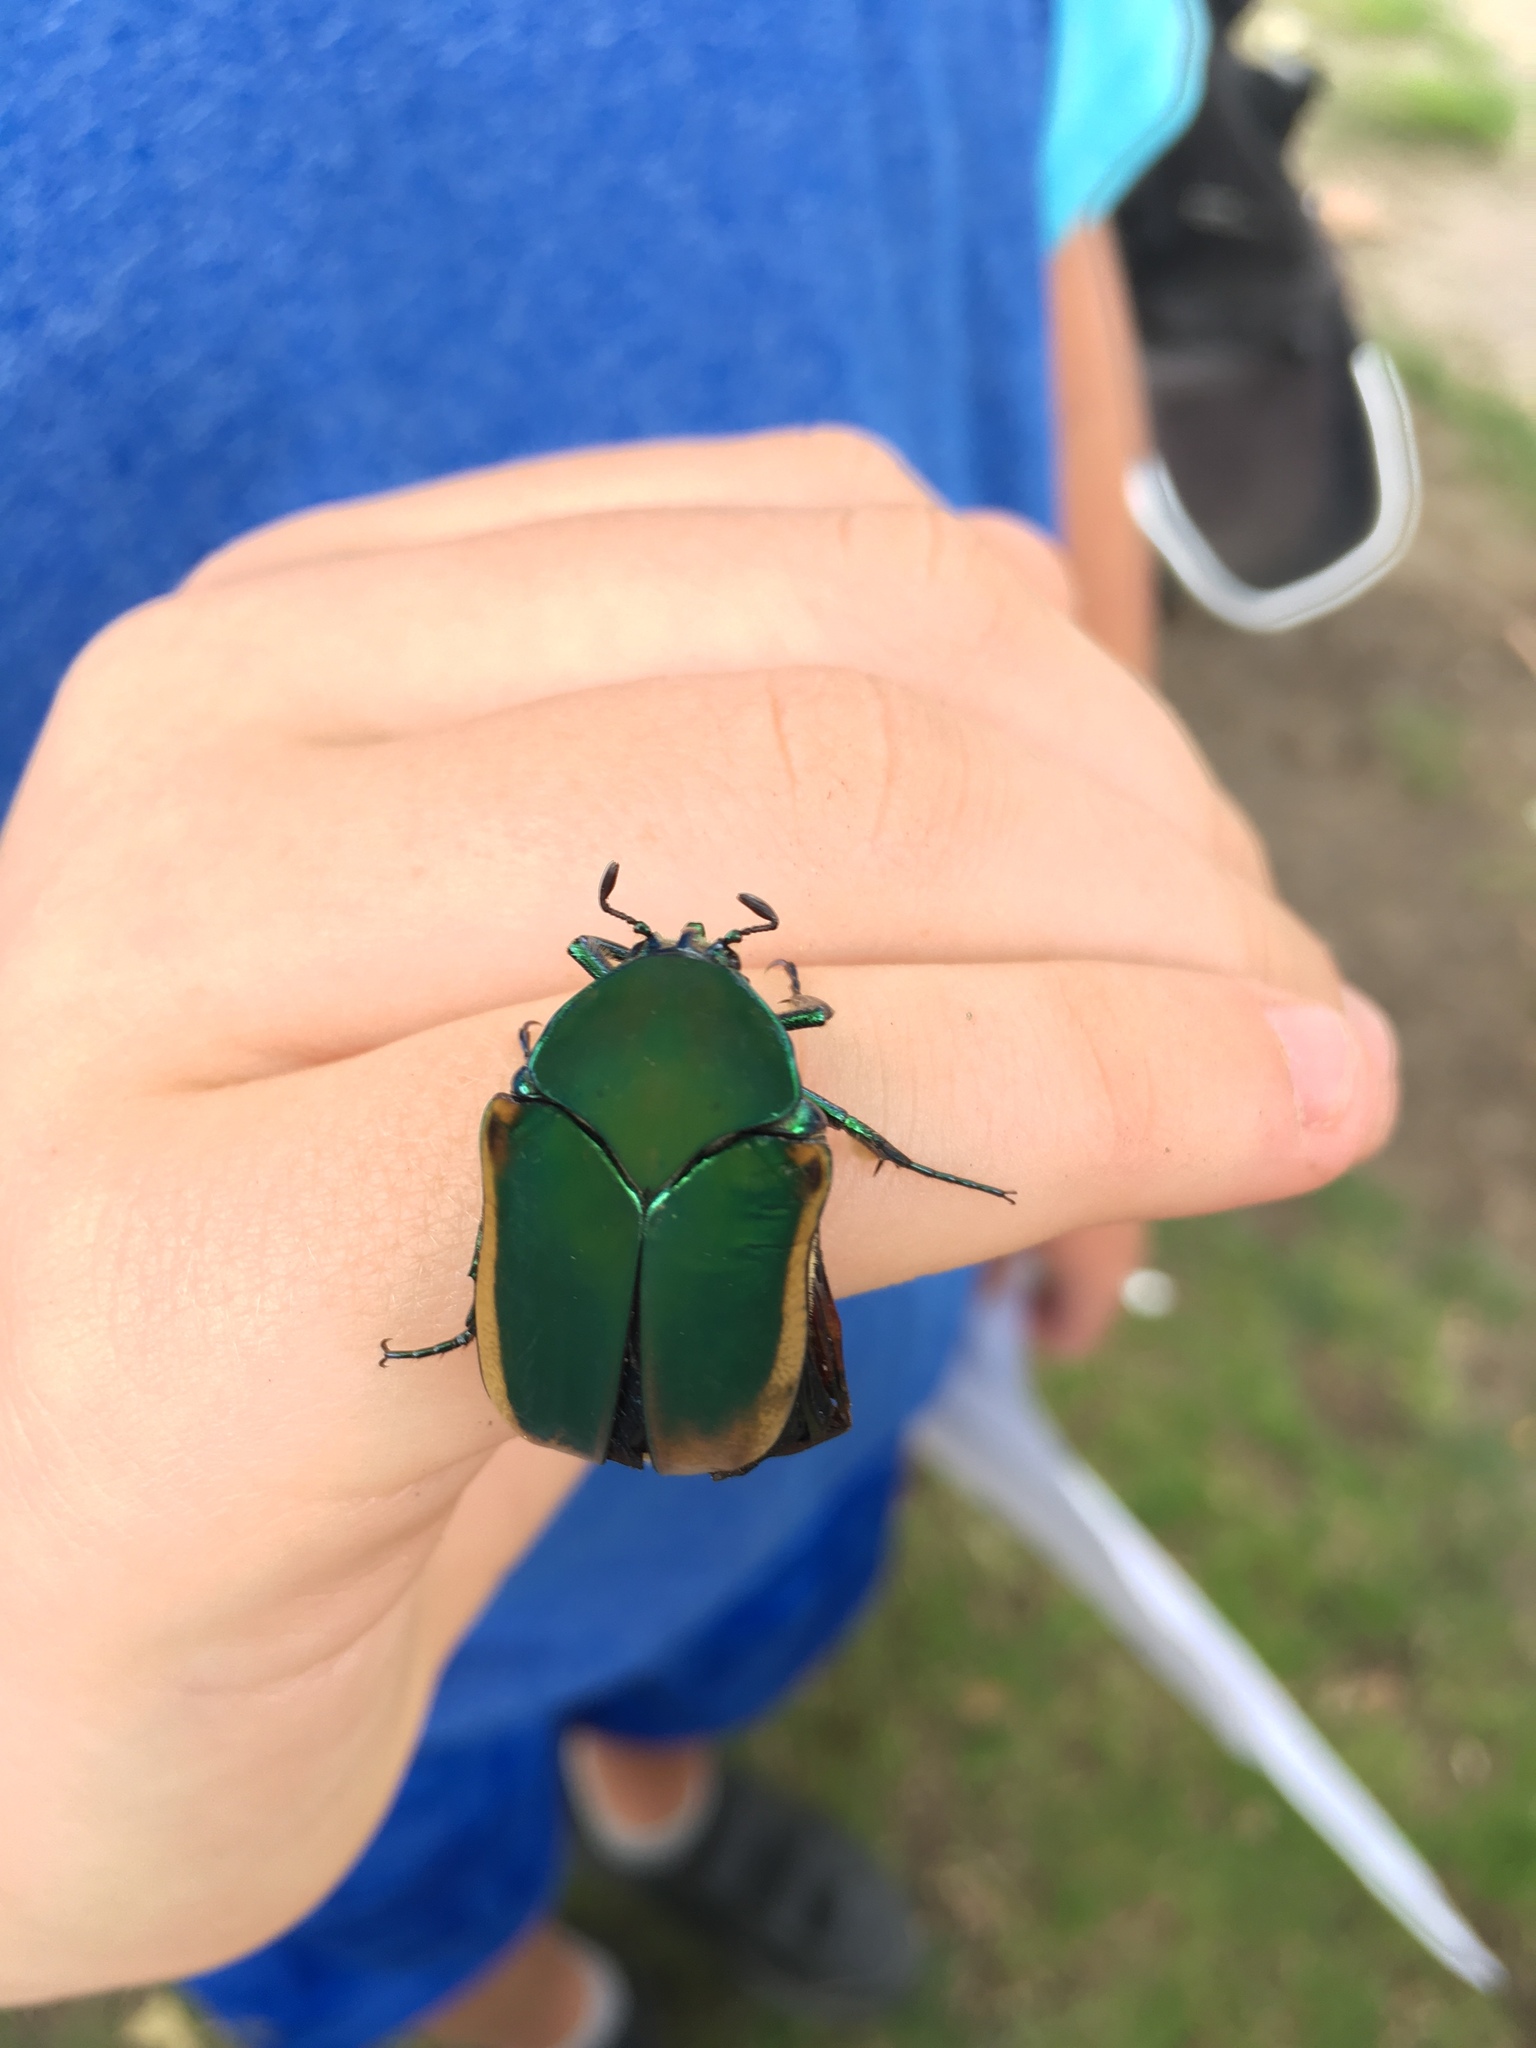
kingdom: Animalia
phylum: Arthropoda
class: Insecta
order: Coleoptera
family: Scarabaeidae
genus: Cotinis
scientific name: Cotinis mutabilis
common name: Figeater beetle
